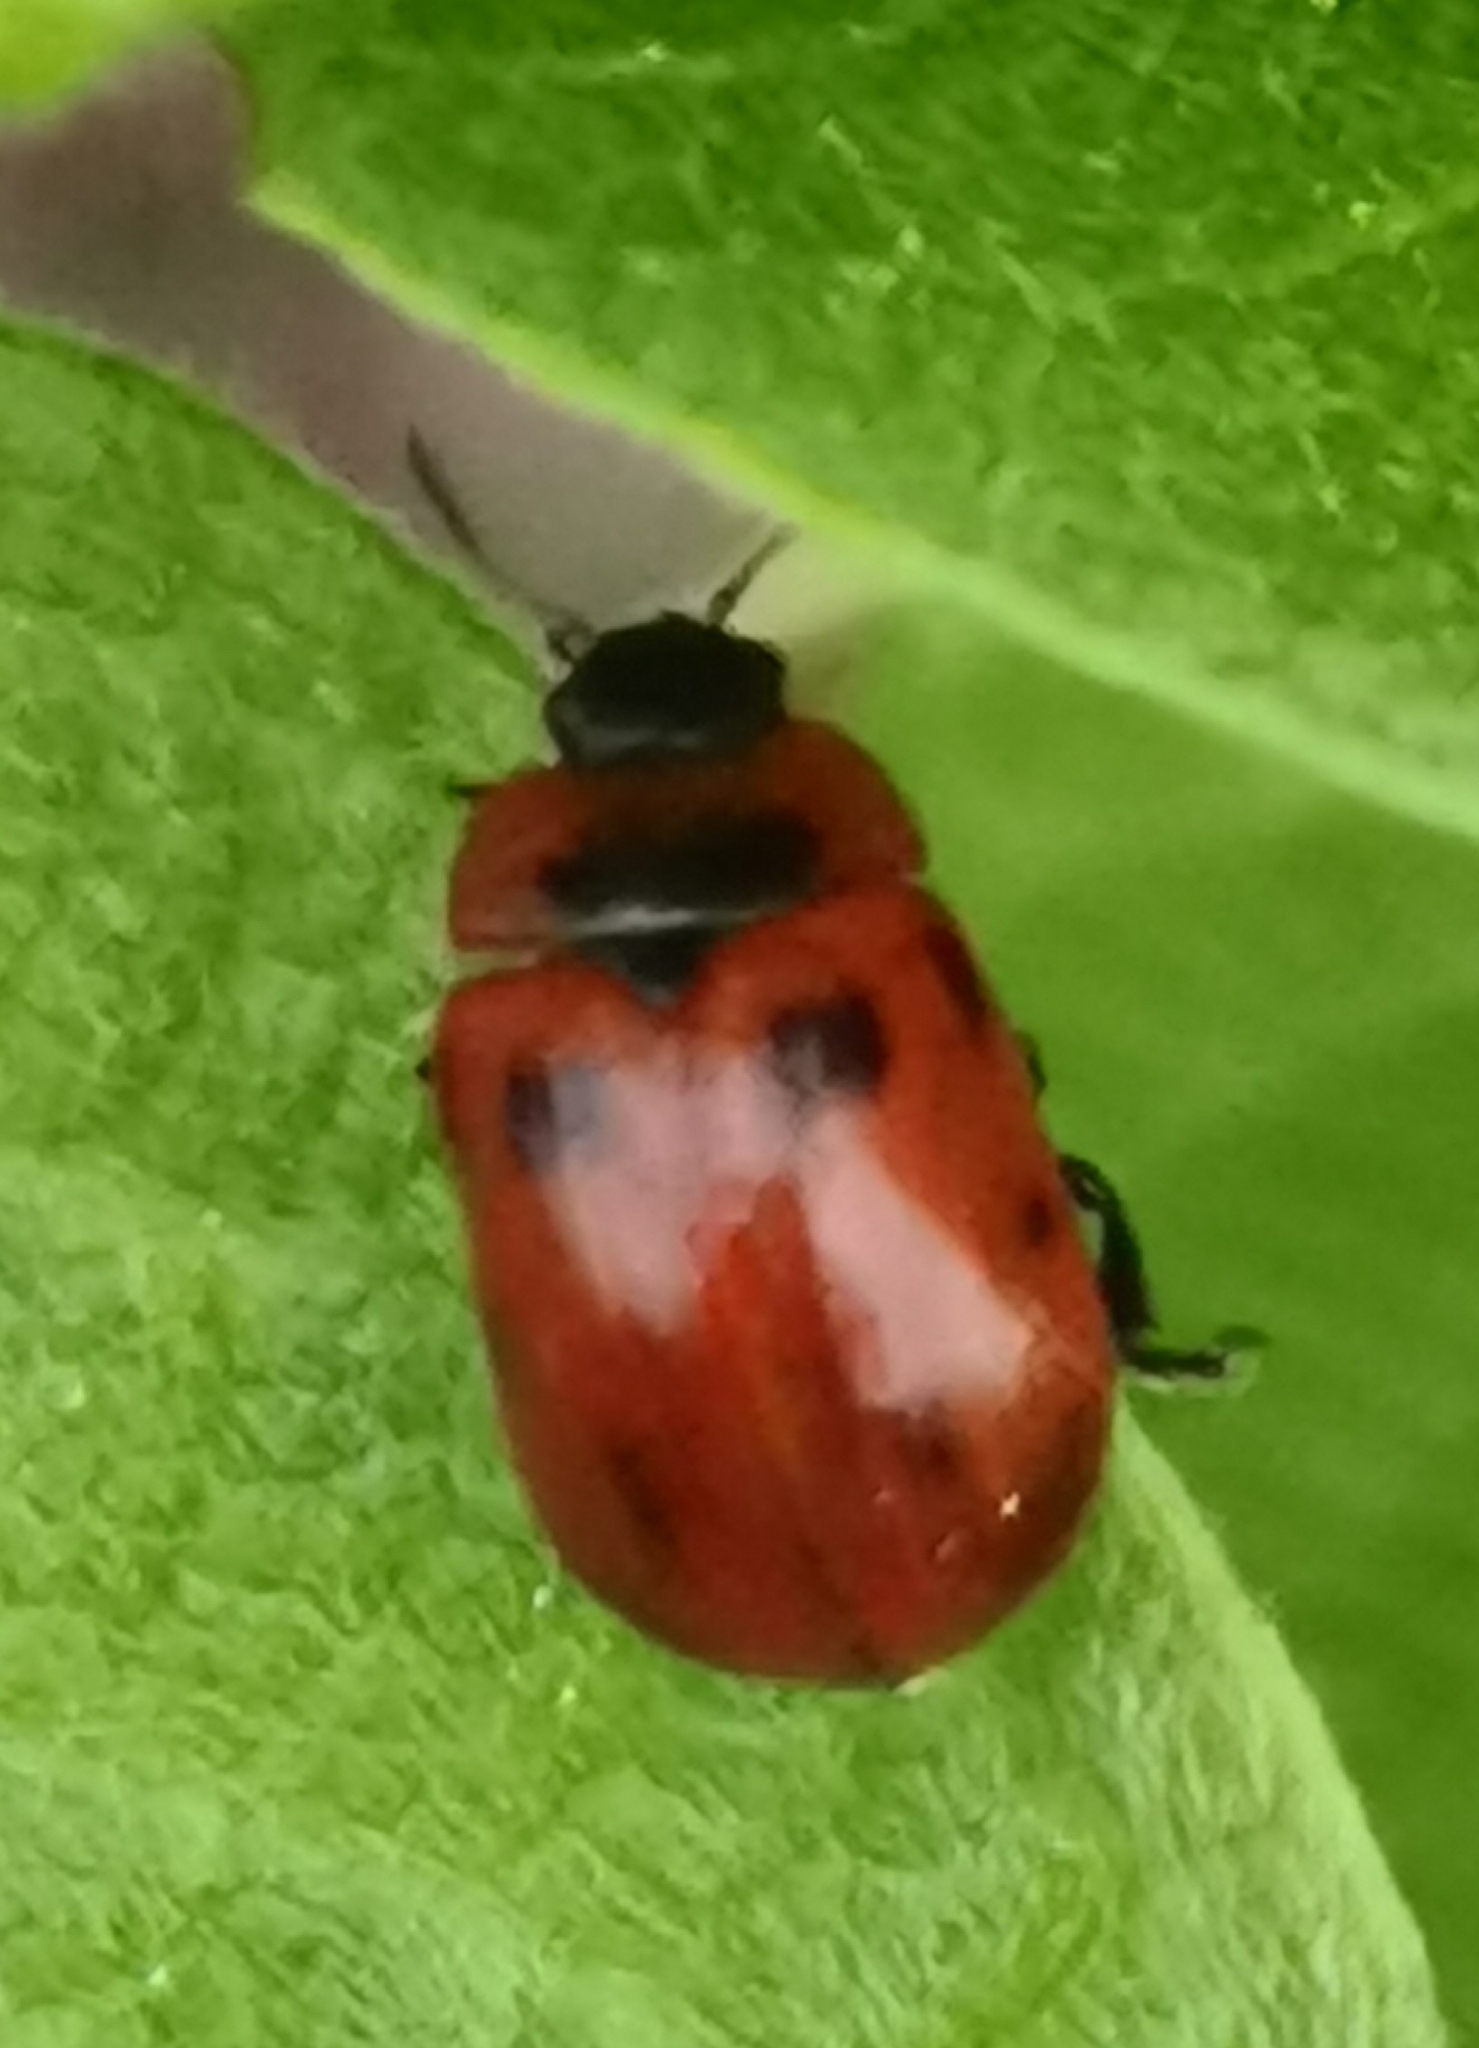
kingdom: Animalia
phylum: Arthropoda
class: Insecta
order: Coleoptera
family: Chrysomelidae
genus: Gonioctena
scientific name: Gonioctena viminalis
